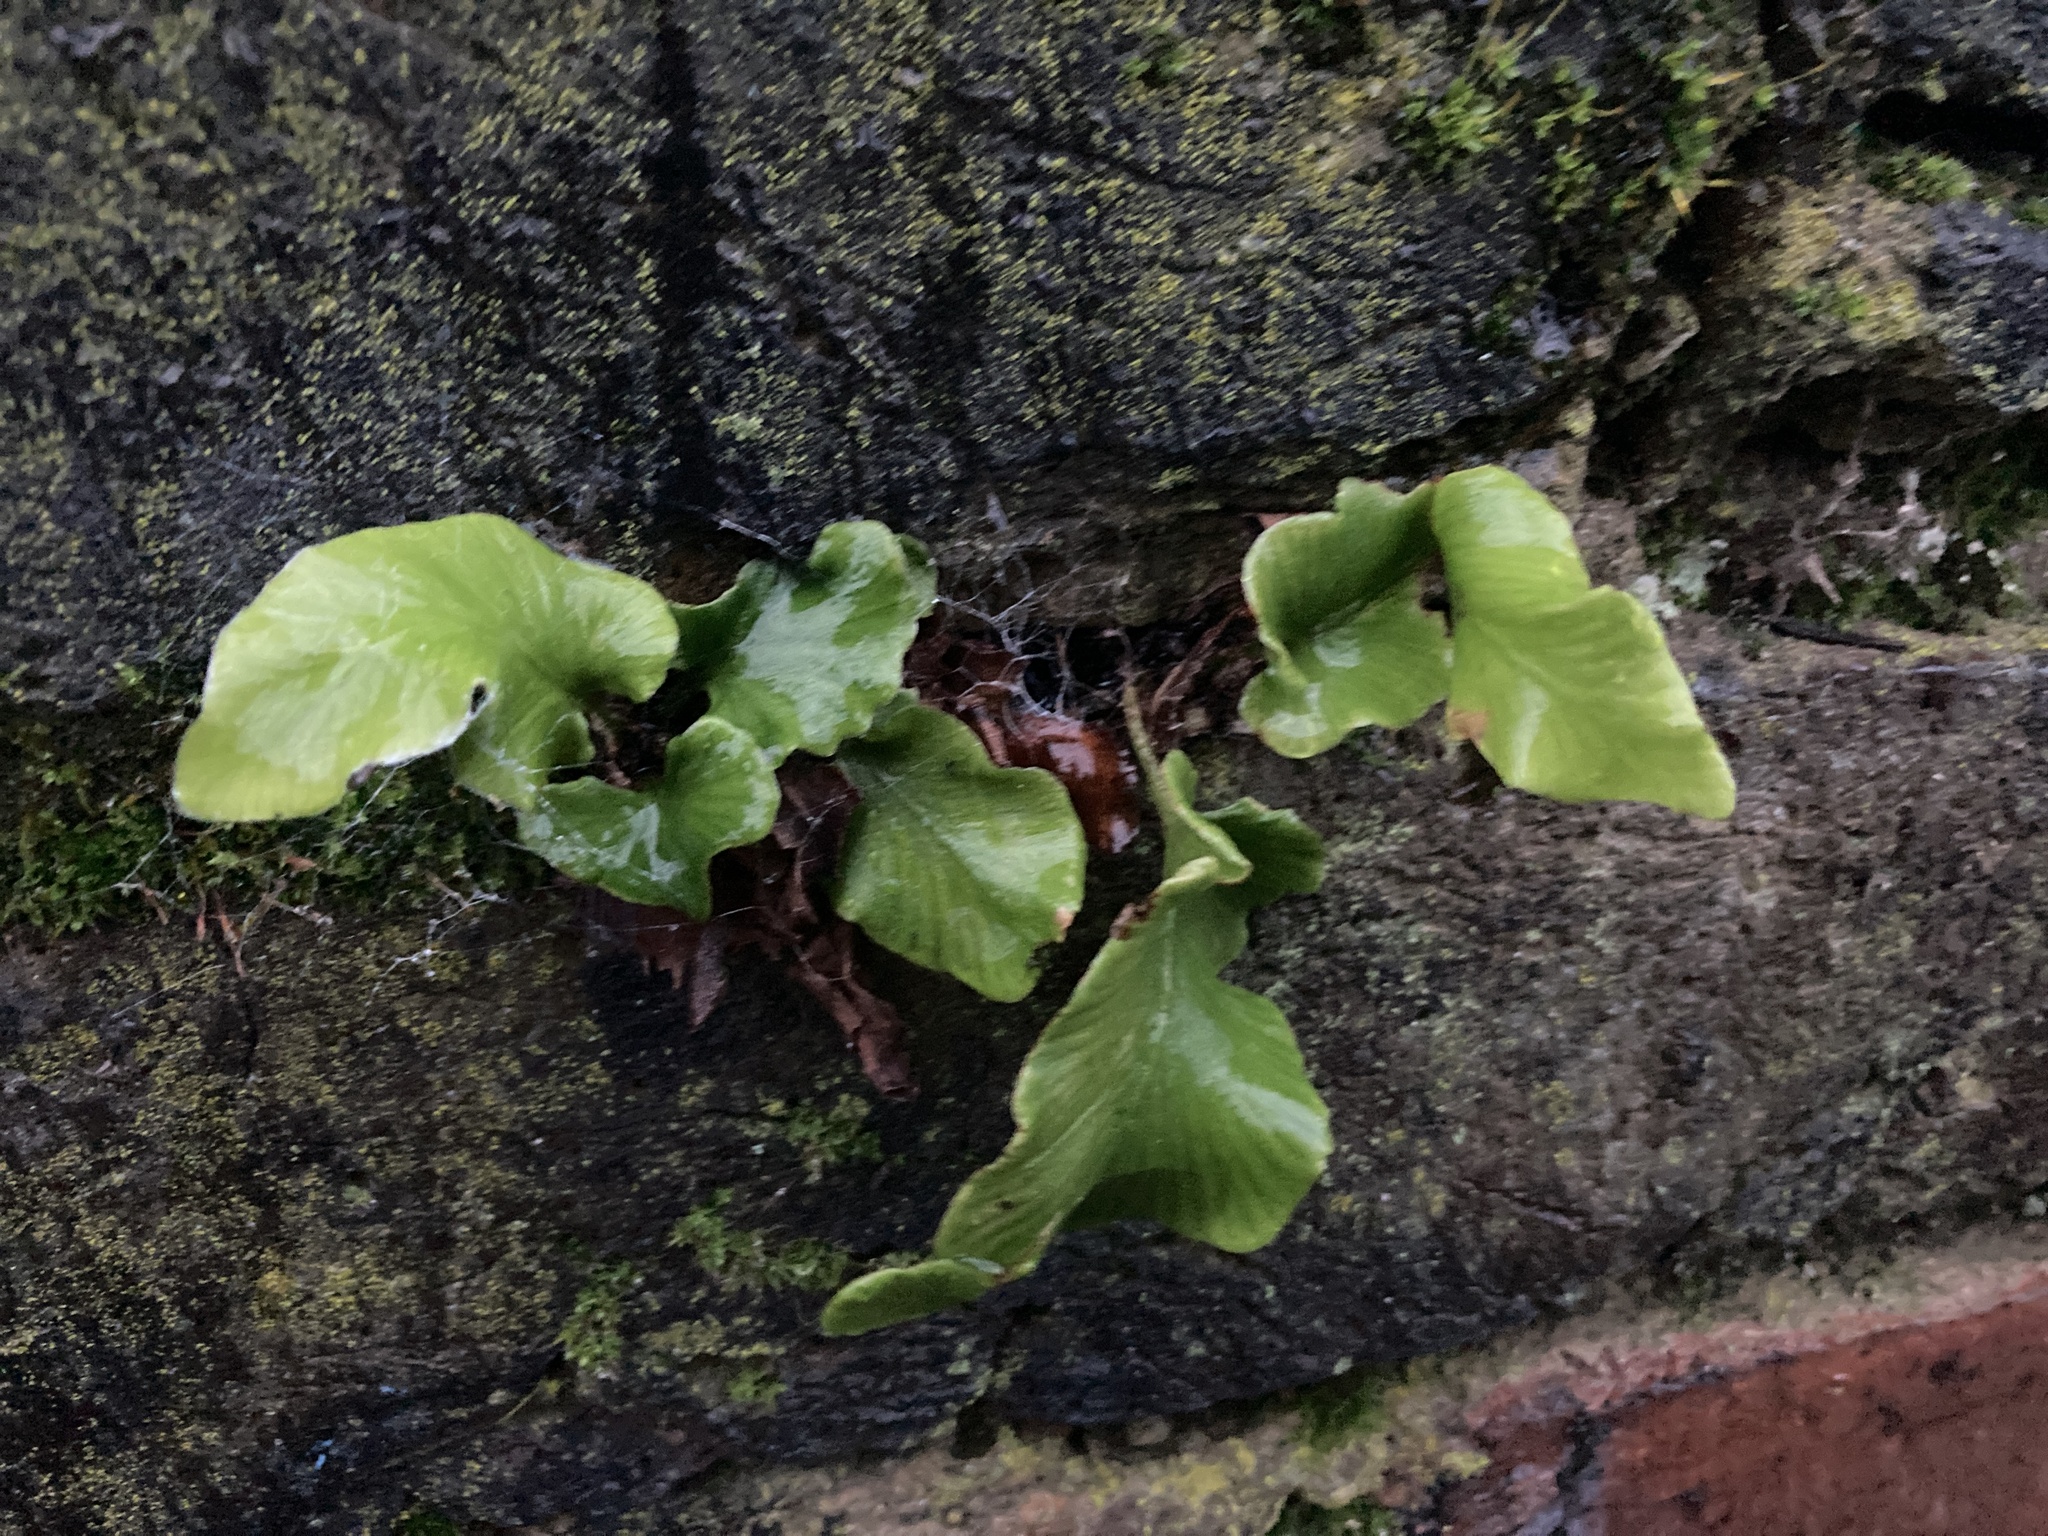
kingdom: Plantae
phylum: Tracheophyta
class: Polypodiopsida
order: Polypodiales
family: Aspleniaceae
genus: Asplenium
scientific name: Asplenium scolopendrium
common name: Hart's-tongue fern
